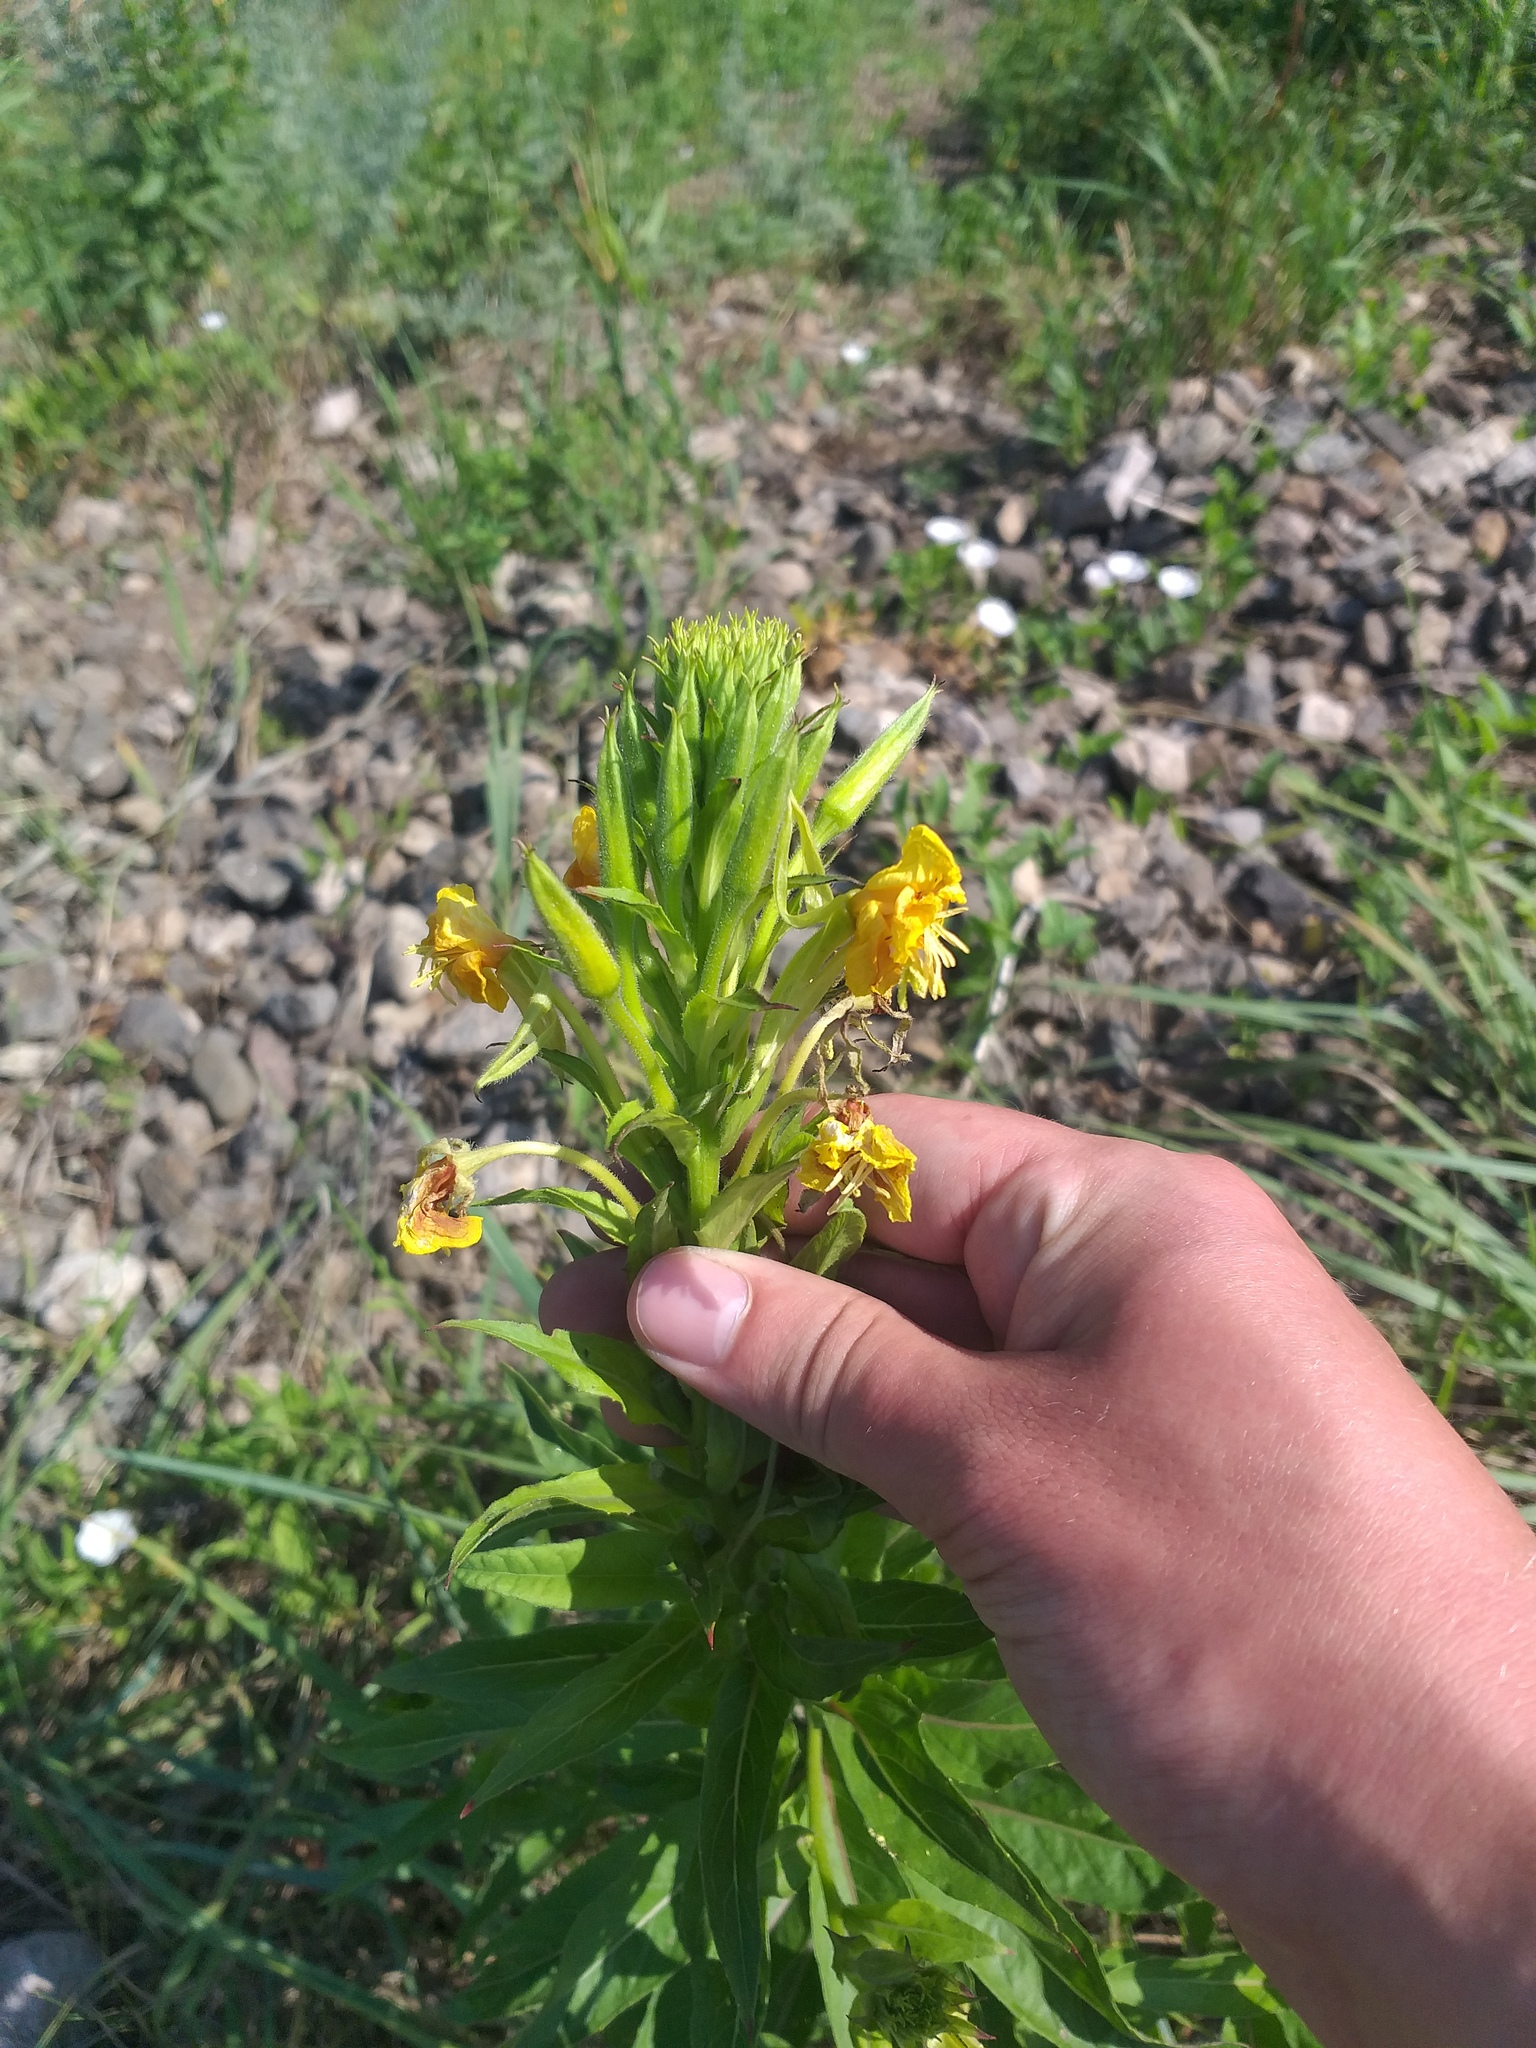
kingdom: Plantae
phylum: Tracheophyta
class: Magnoliopsida
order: Myrtales
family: Onagraceae
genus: Oenothera
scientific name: Oenothera biennis
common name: Common evening-primrose
